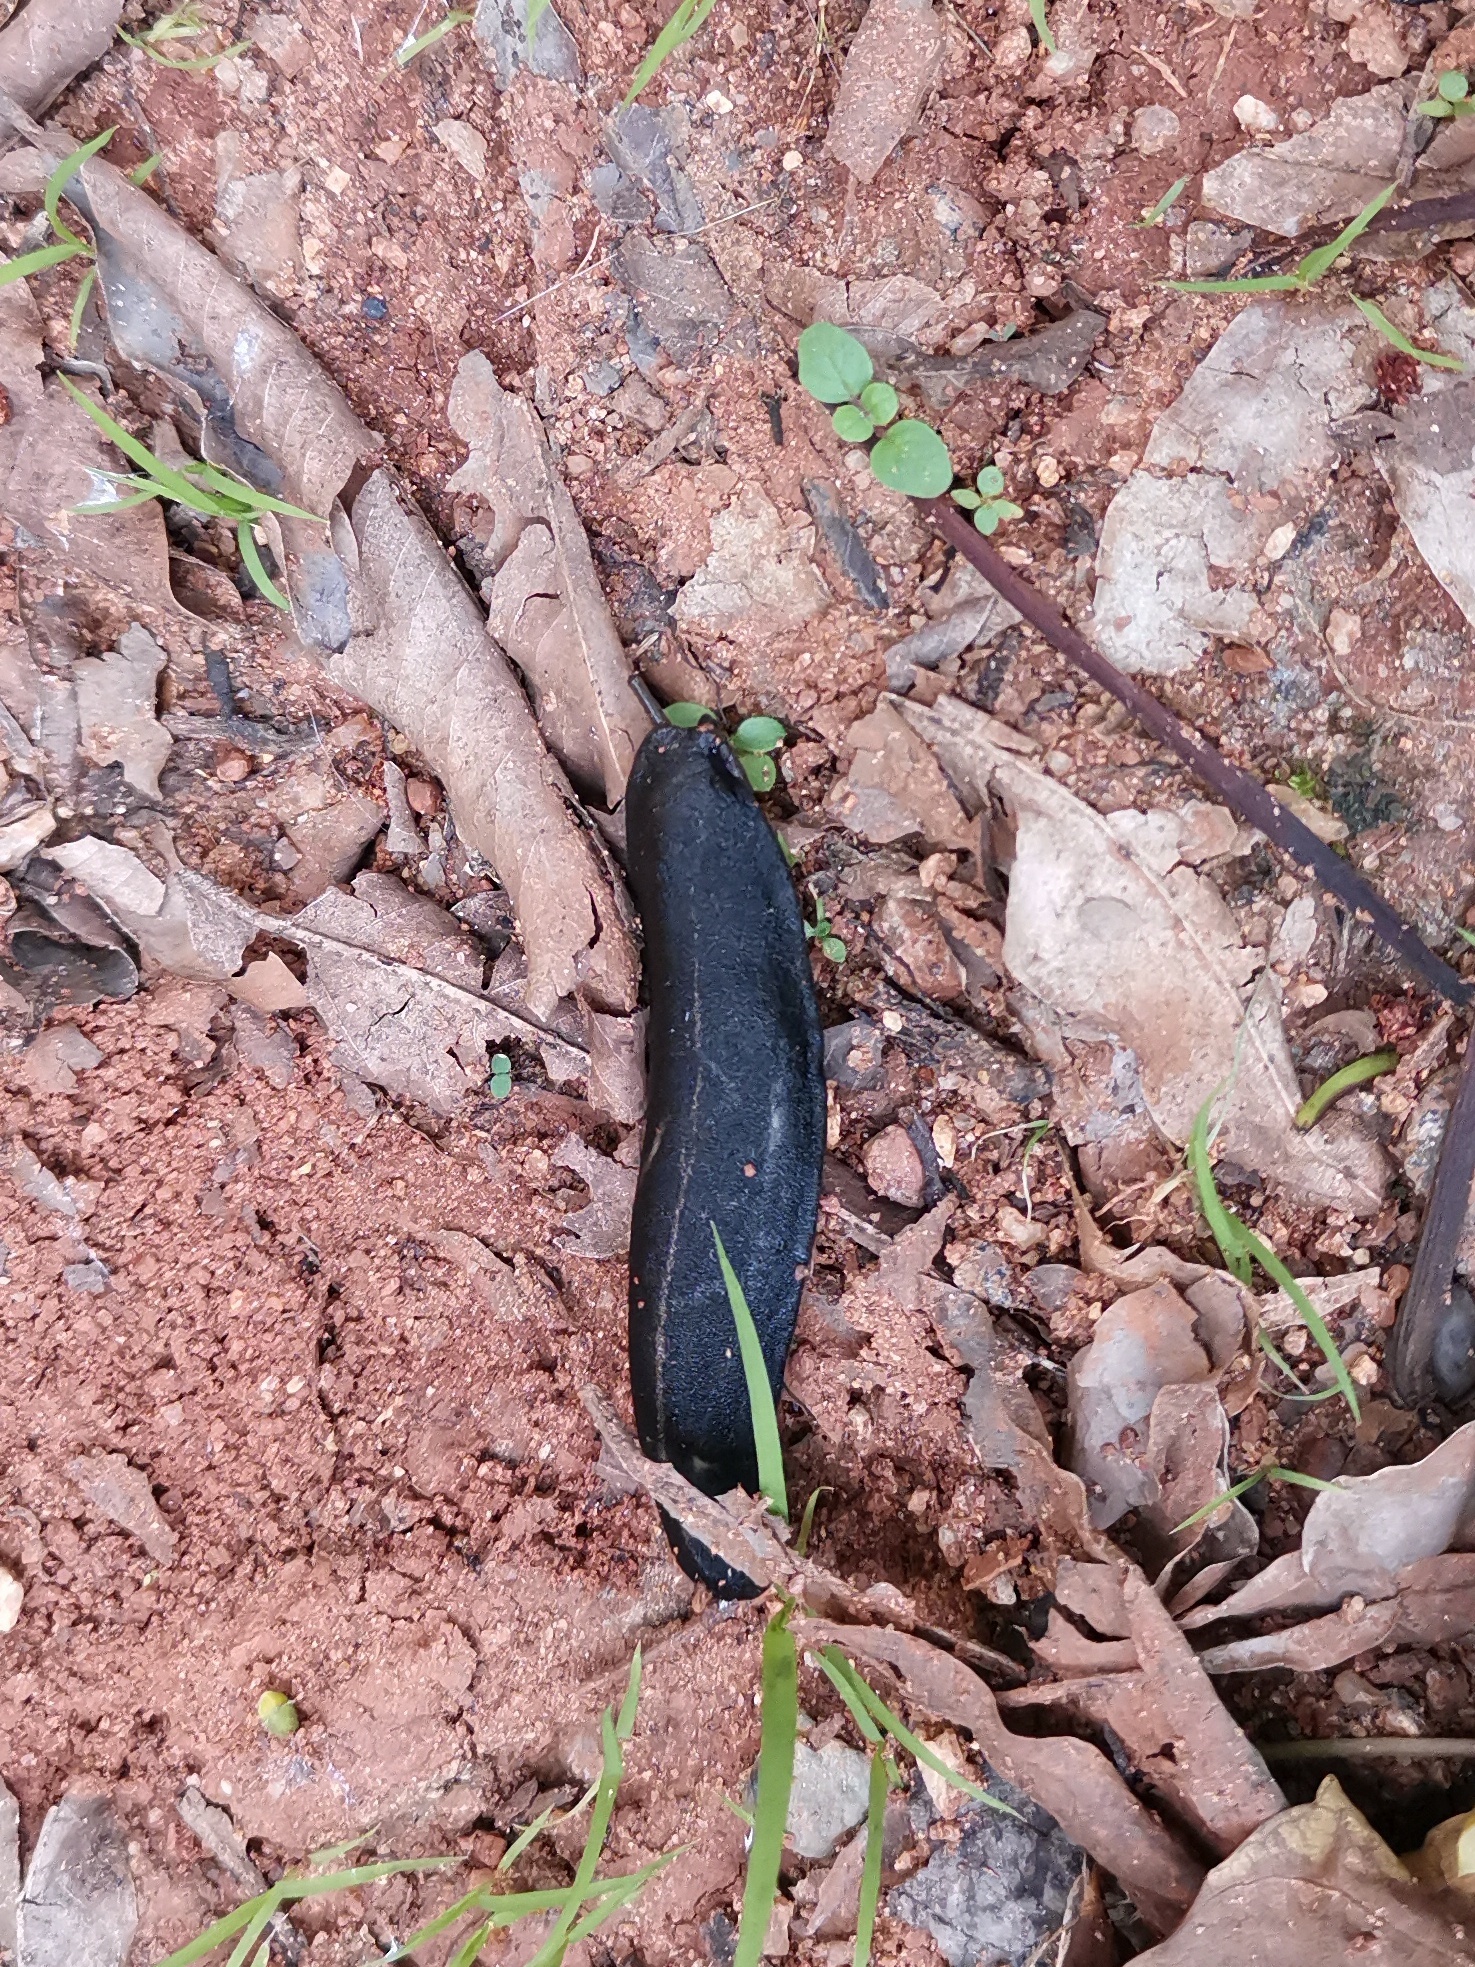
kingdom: Animalia
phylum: Mollusca
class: Gastropoda
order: Systellommatophora
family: Veronicellidae
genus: Laevicaulis
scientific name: Laevicaulis alte
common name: Tropical leatherleaf
